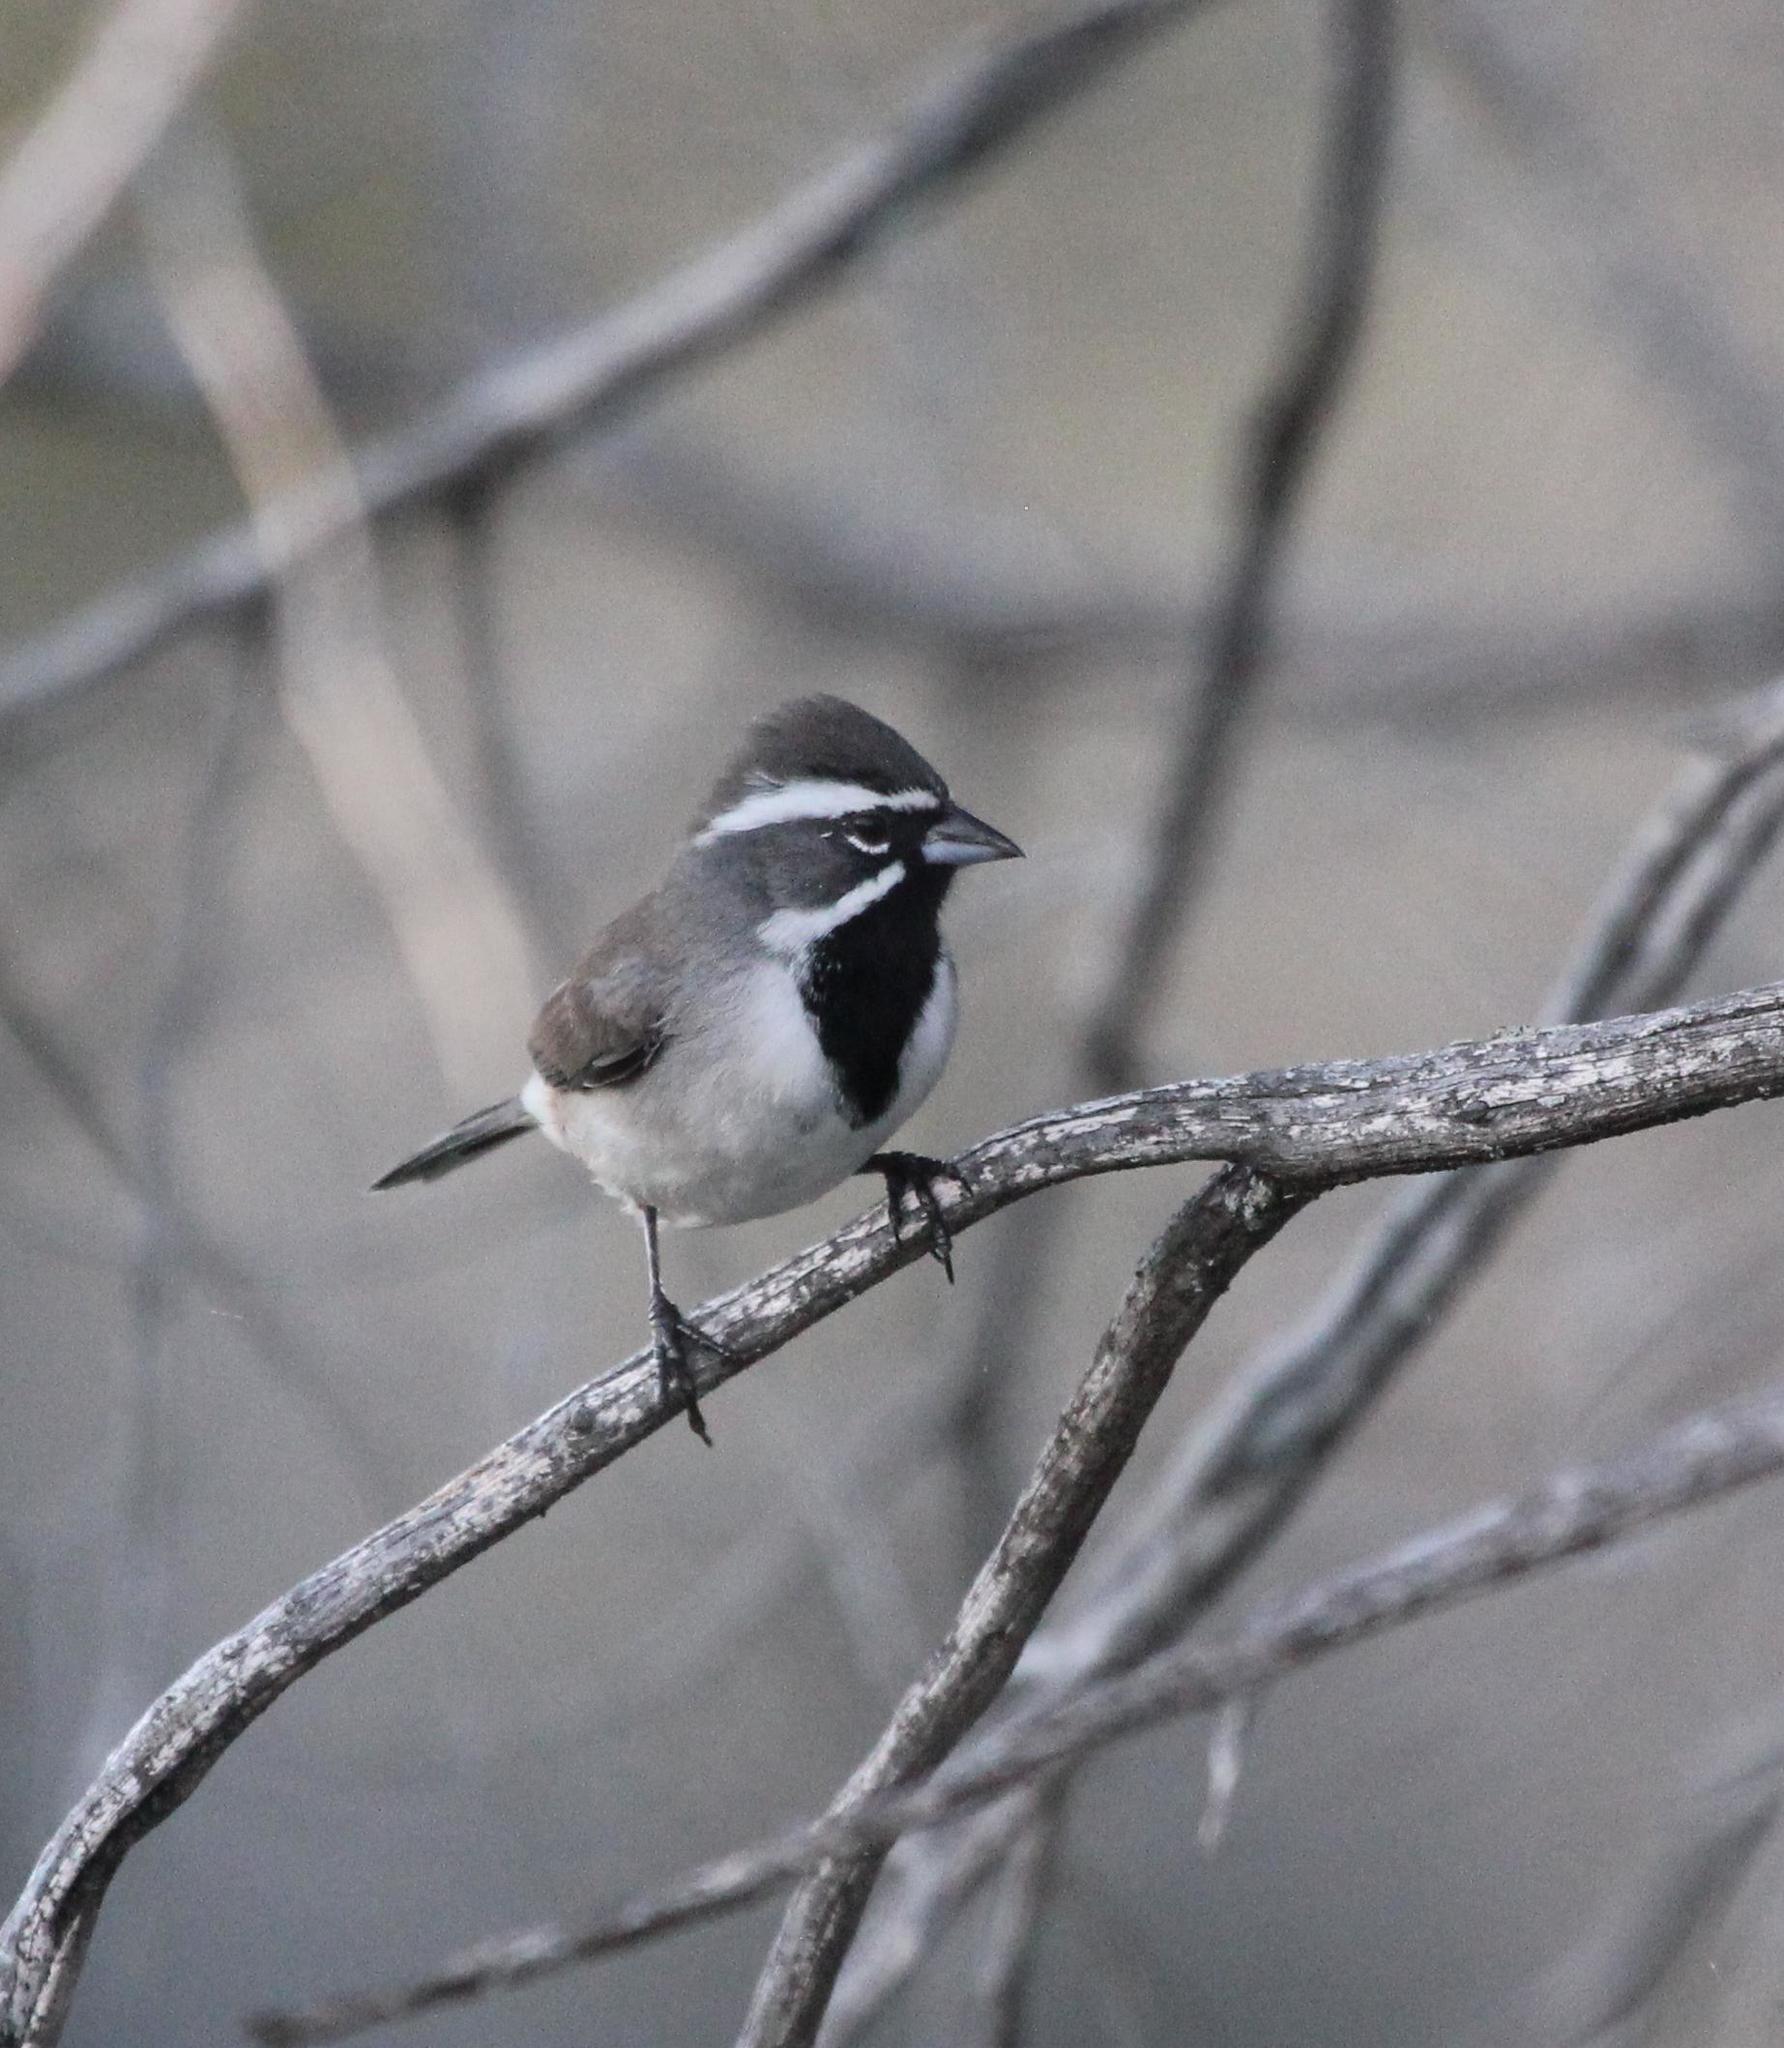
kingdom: Animalia
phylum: Chordata
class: Aves
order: Passeriformes
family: Passerellidae
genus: Amphispiza
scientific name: Amphispiza bilineata
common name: Black-throated sparrow
